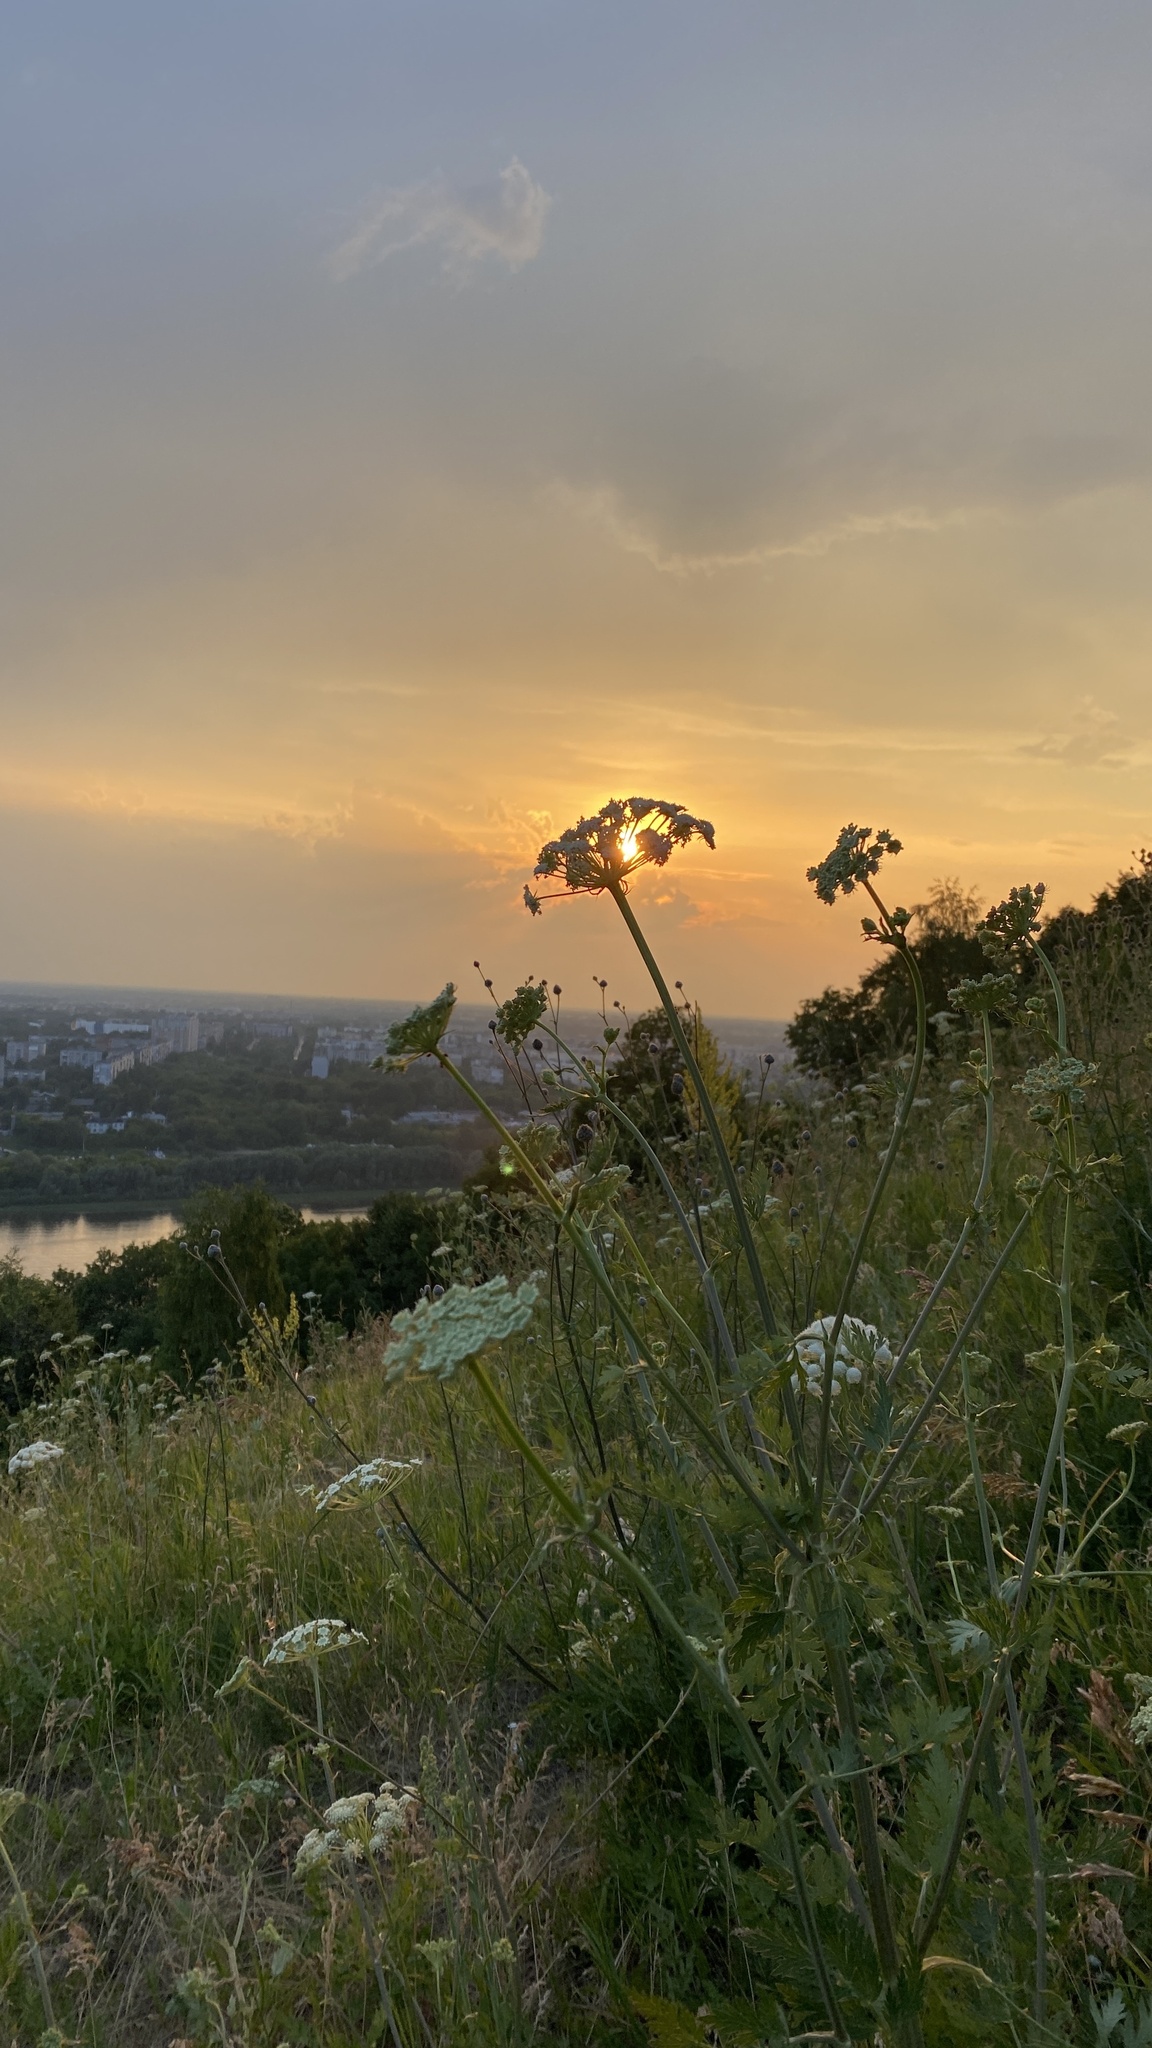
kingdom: Plantae
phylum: Tracheophyta
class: Magnoliopsida
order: Apiales
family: Apiaceae
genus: Seseli
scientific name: Seseli libanotis
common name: Mooncarrot
